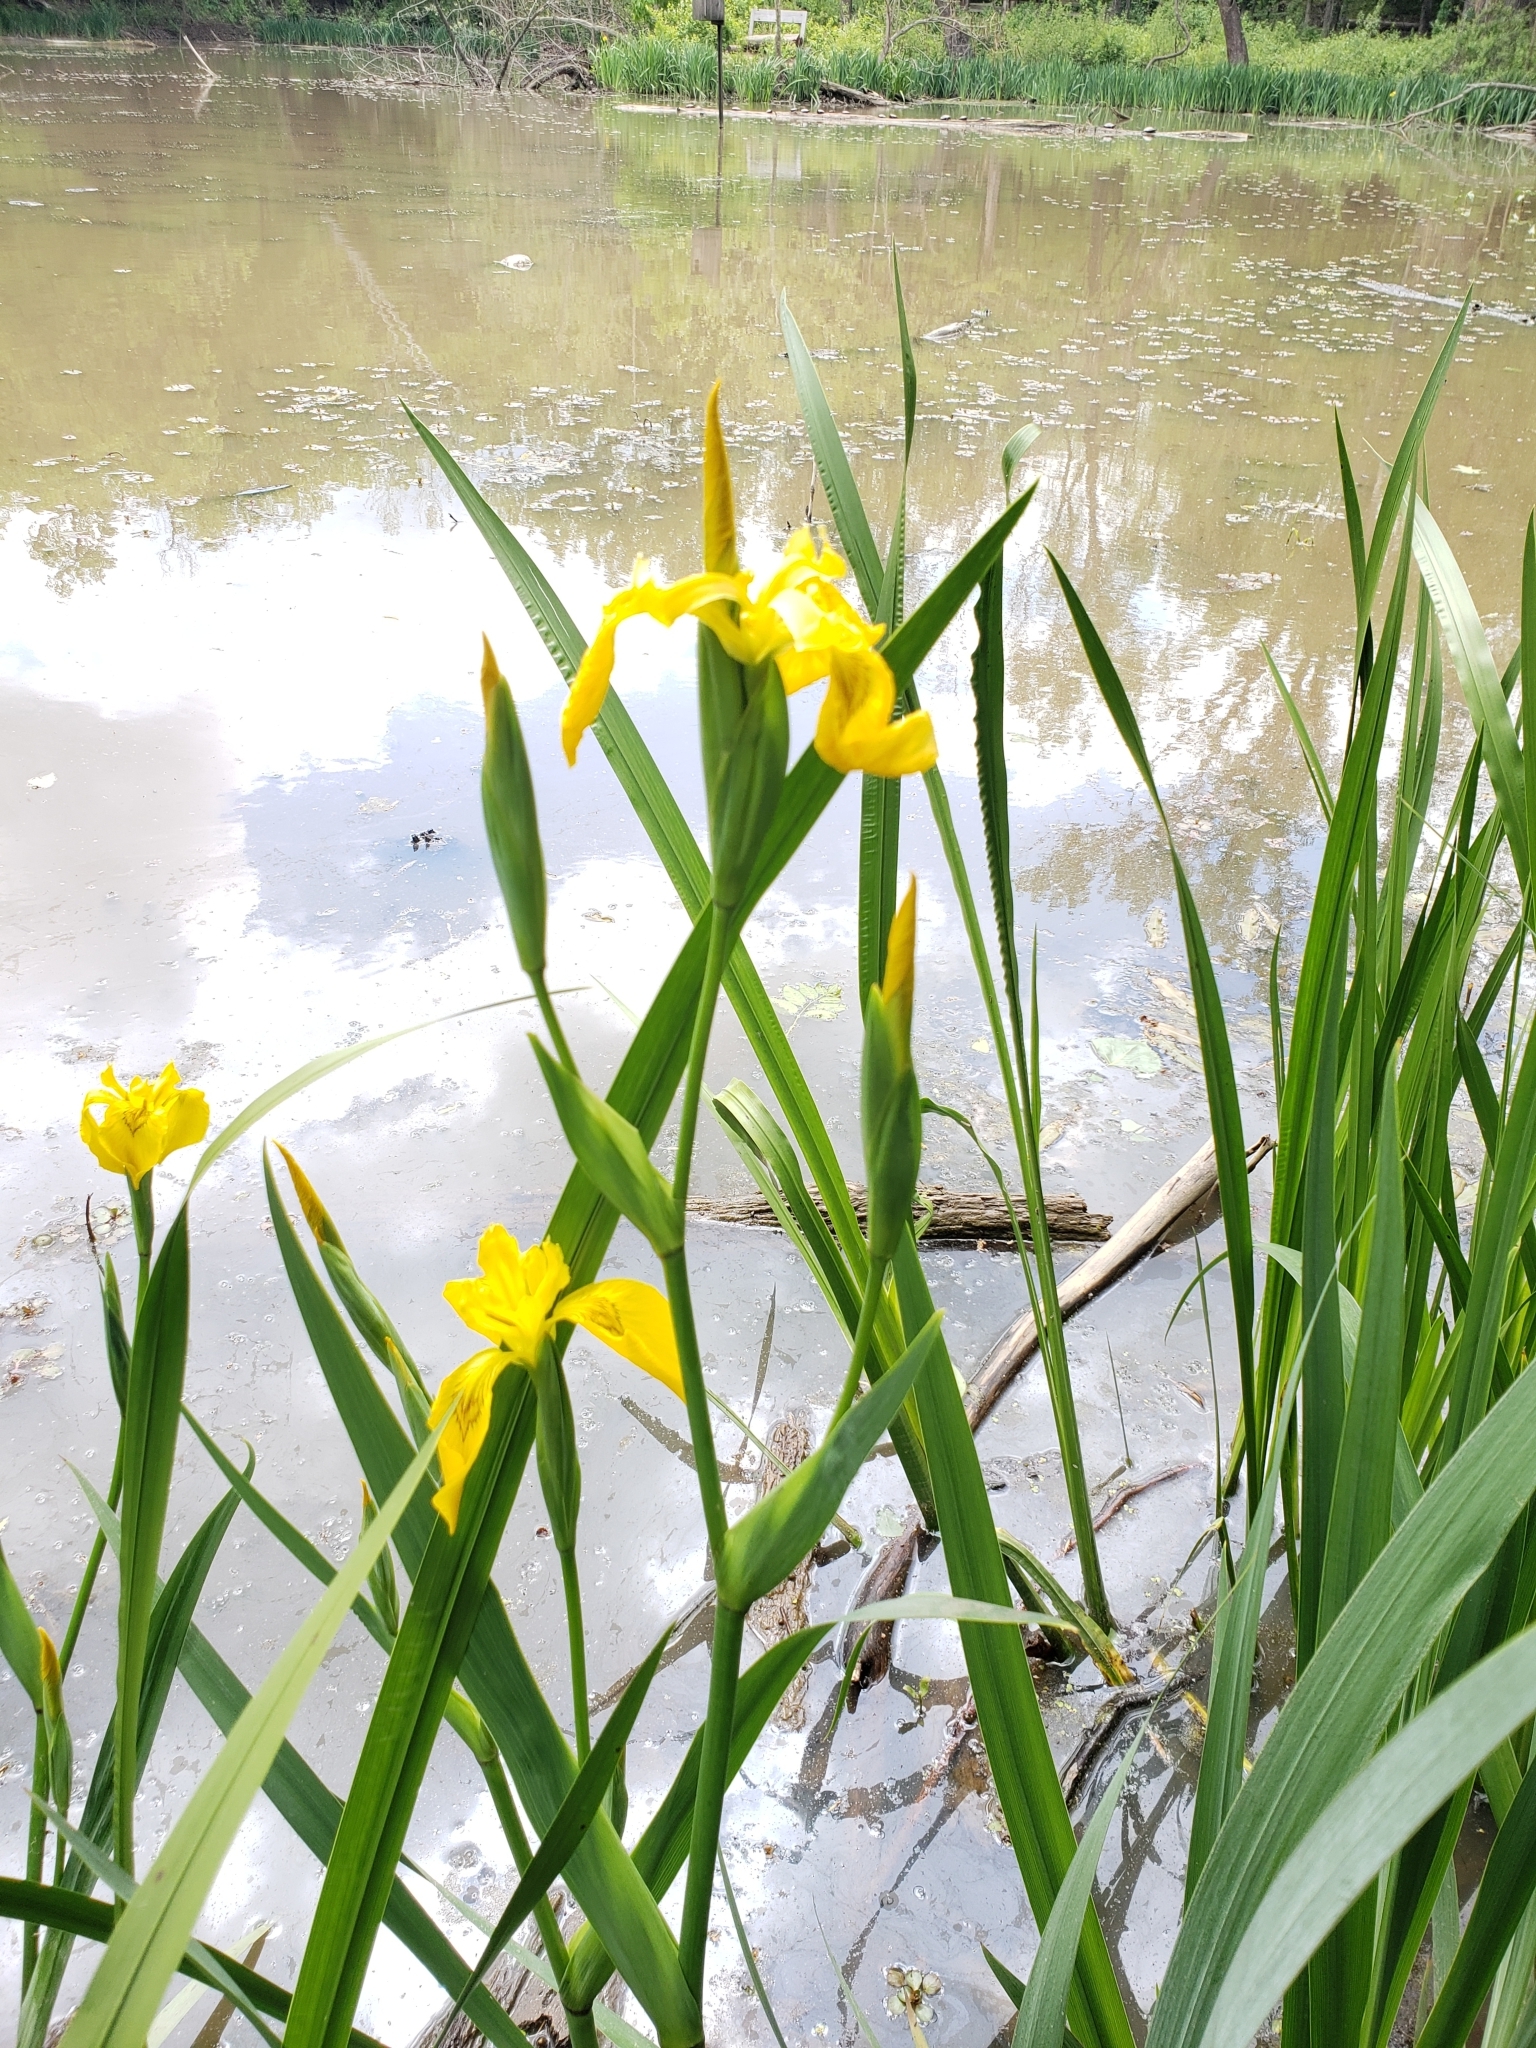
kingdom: Plantae
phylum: Tracheophyta
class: Liliopsida
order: Asparagales
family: Iridaceae
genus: Iris
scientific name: Iris pseudacorus
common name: Yellow flag
